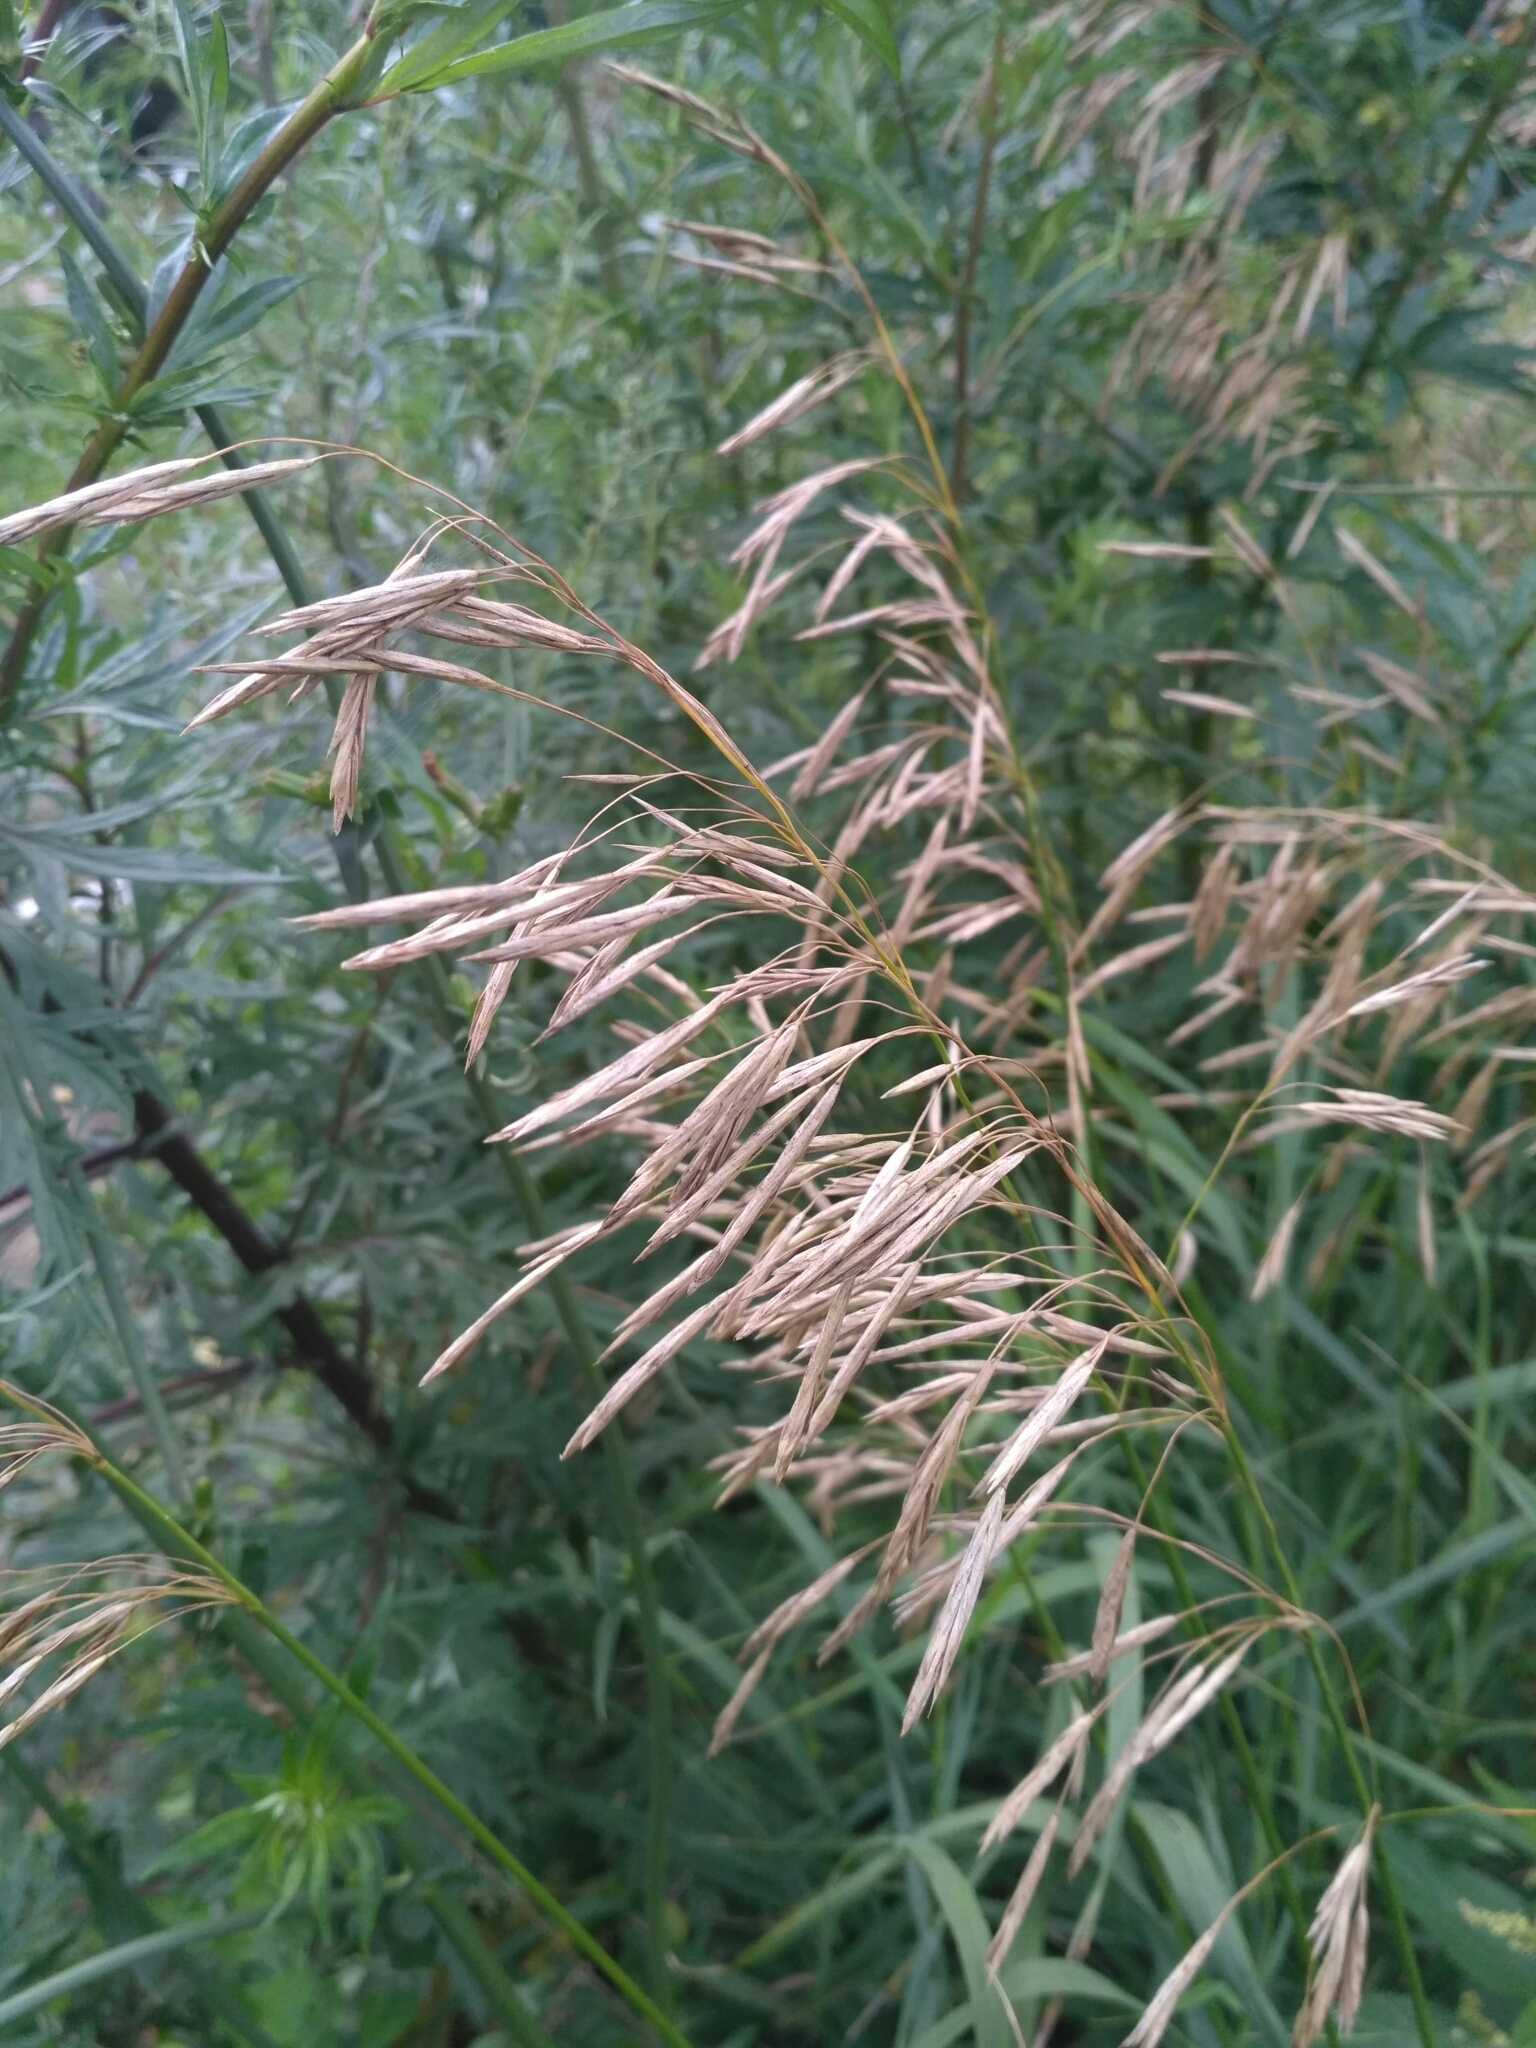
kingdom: Plantae
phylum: Tracheophyta
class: Liliopsida
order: Poales
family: Poaceae
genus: Bromus
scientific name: Bromus inermis
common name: Smooth brome
